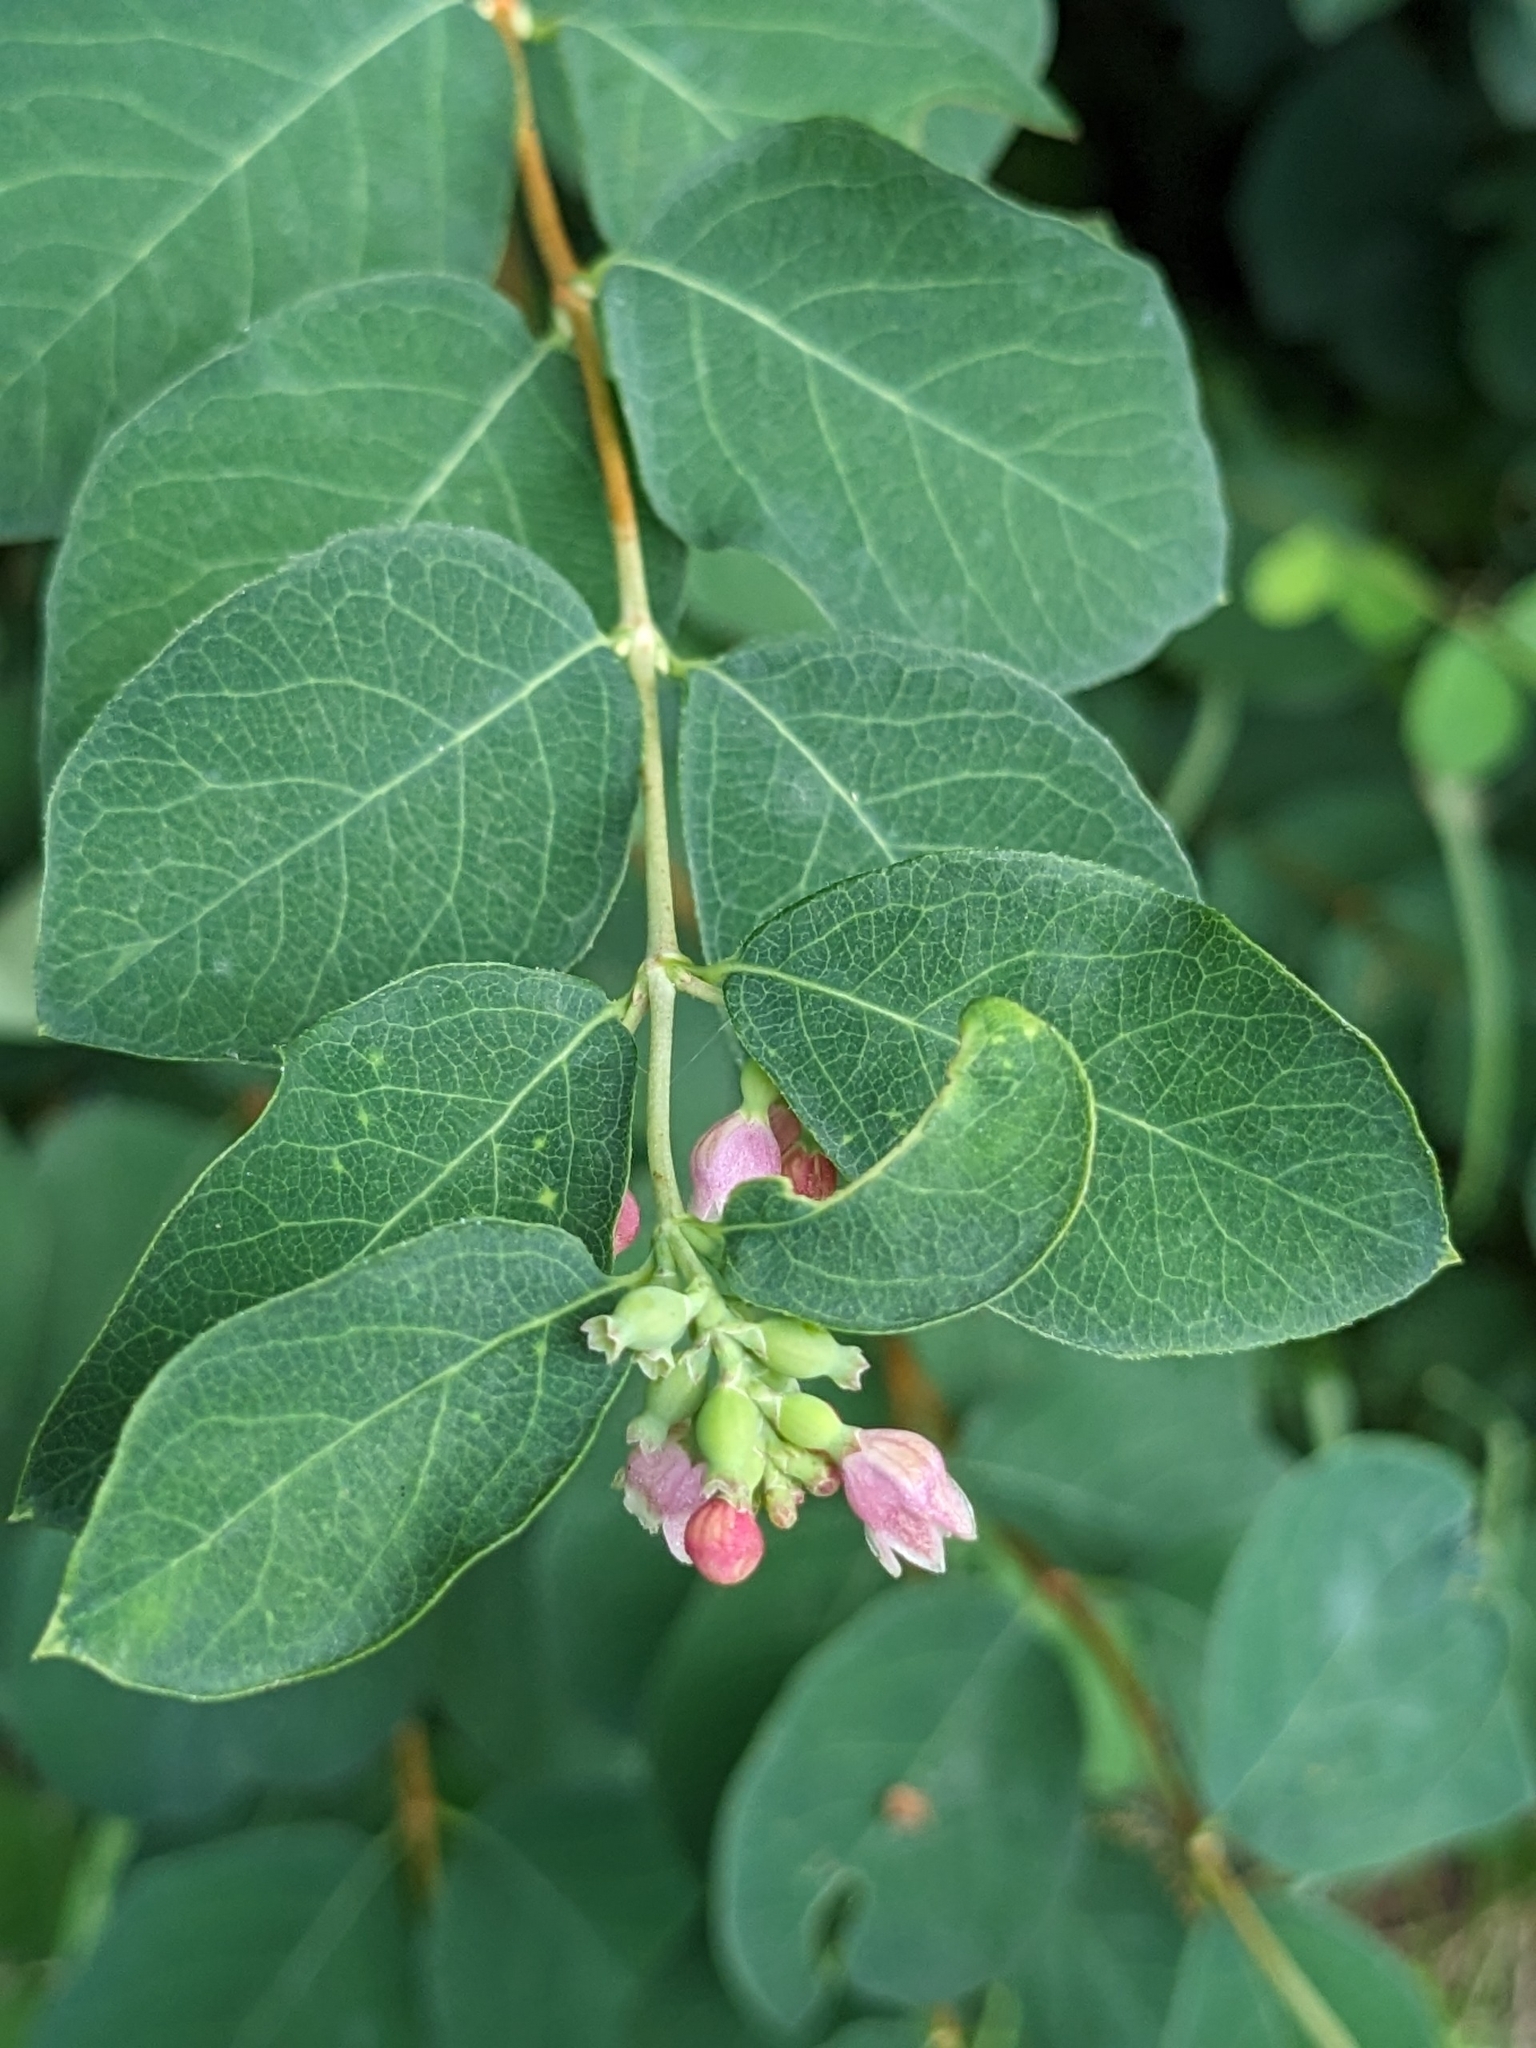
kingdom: Plantae
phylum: Tracheophyta
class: Magnoliopsida
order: Dipsacales
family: Caprifoliaceae
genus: Symphoricarpos
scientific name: Symphoricarpos albus
